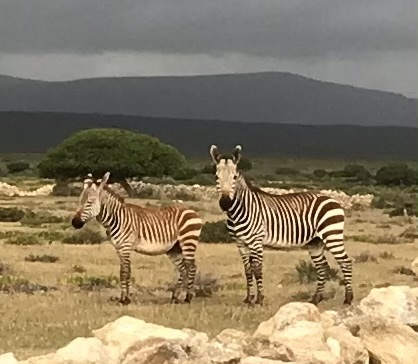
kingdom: Animalia
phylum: Chordata
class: Mammalia
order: Perissodactyla
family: Equidae
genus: Equus
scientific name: Equus zebra
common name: Mountain zebra
